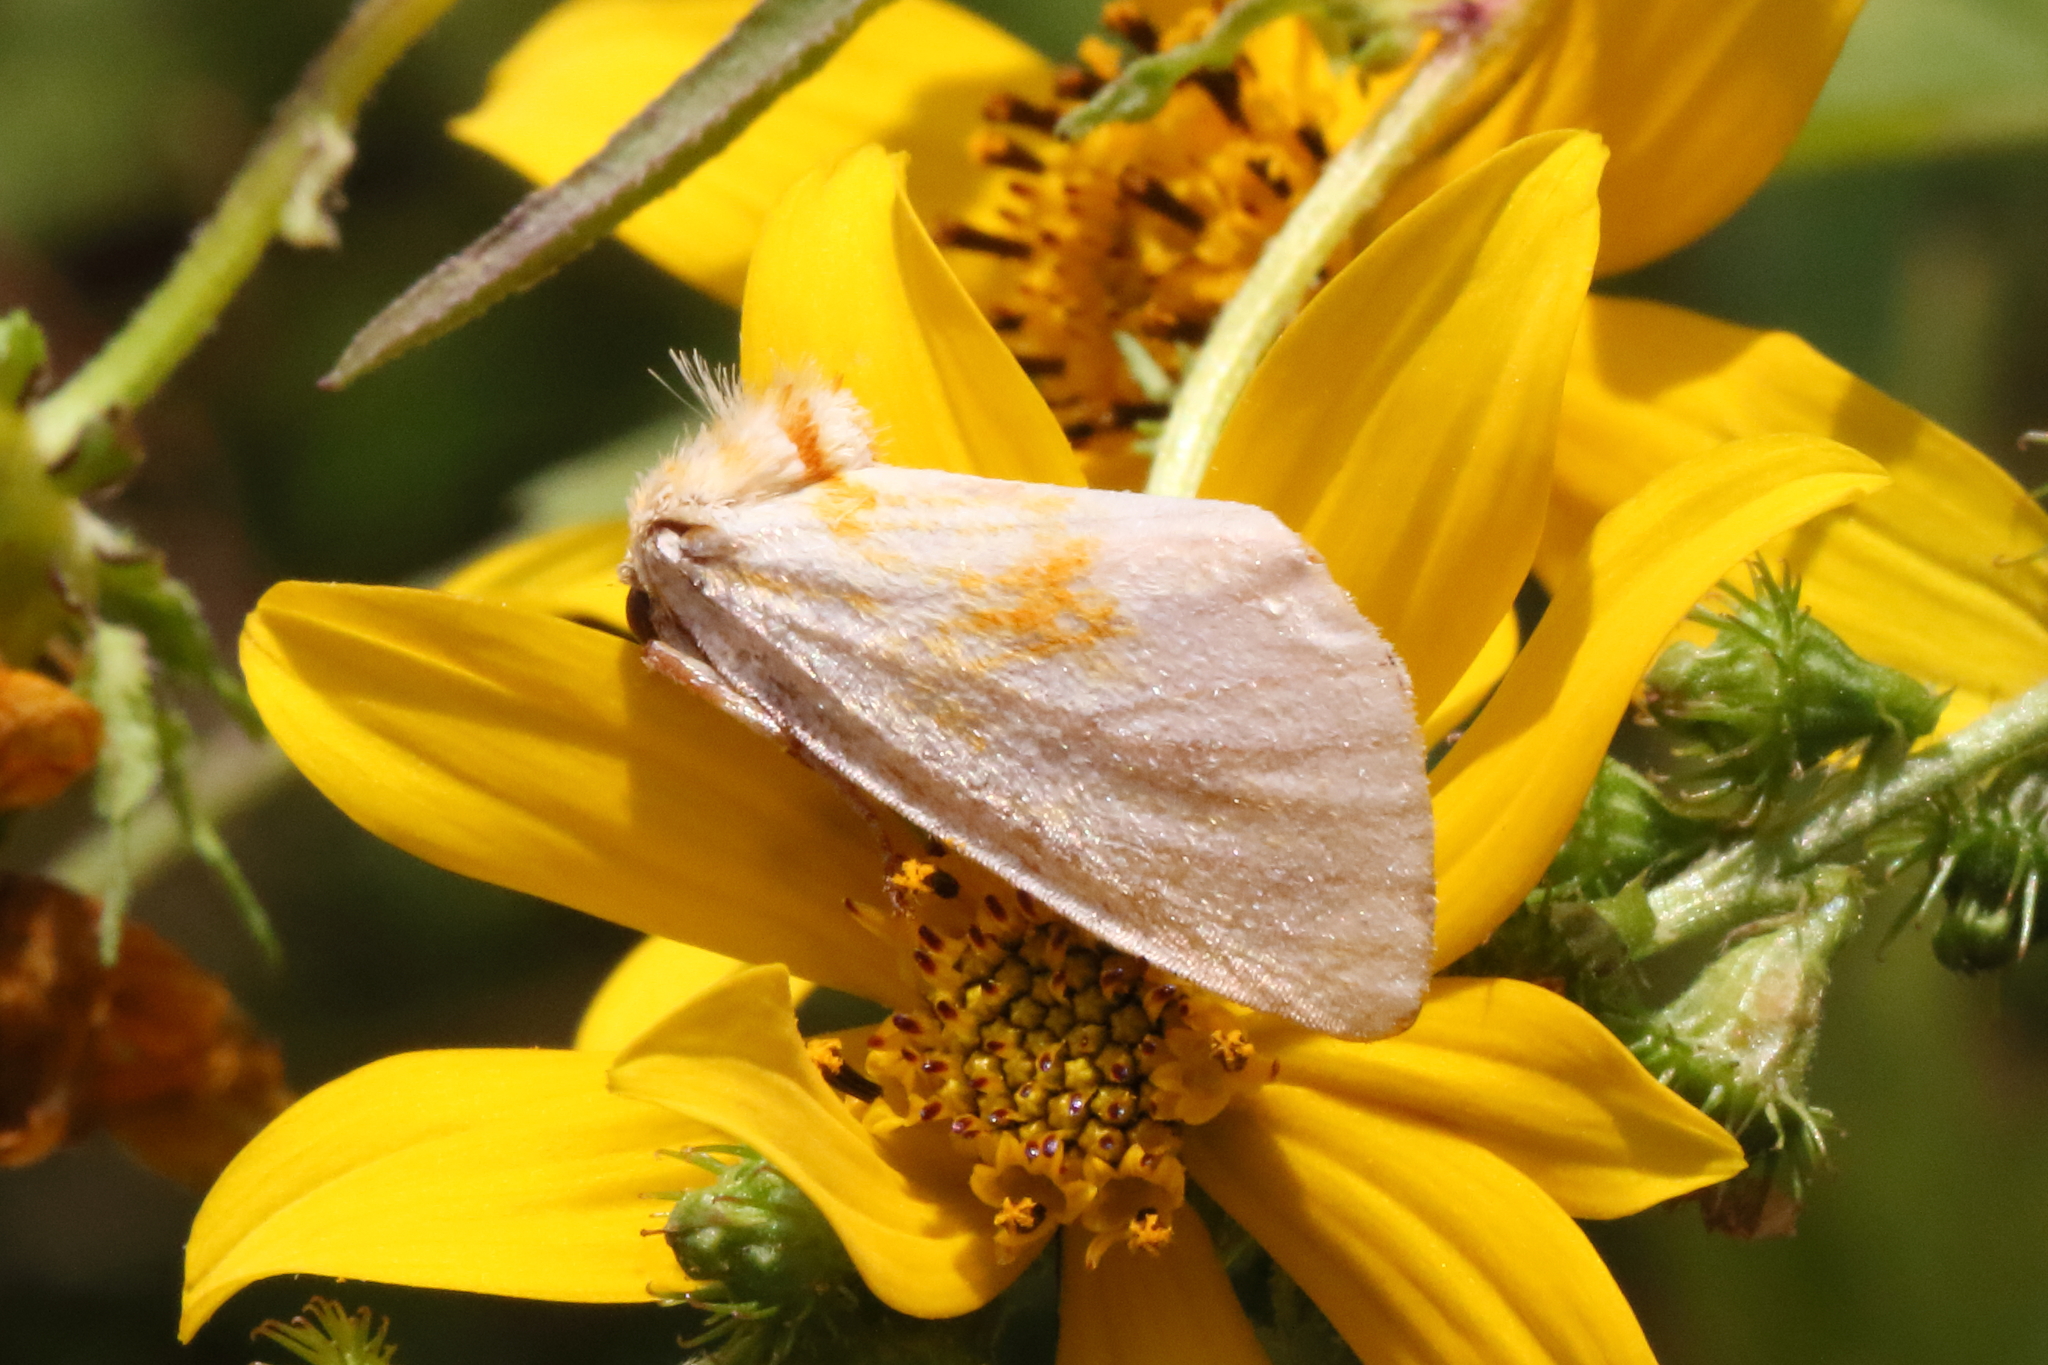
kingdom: Animalia
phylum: Arthropoda
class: Insecta
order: Lepidoptera
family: Noctuidae
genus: Cirrhophanus
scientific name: Cirrhophanus triangulifer
